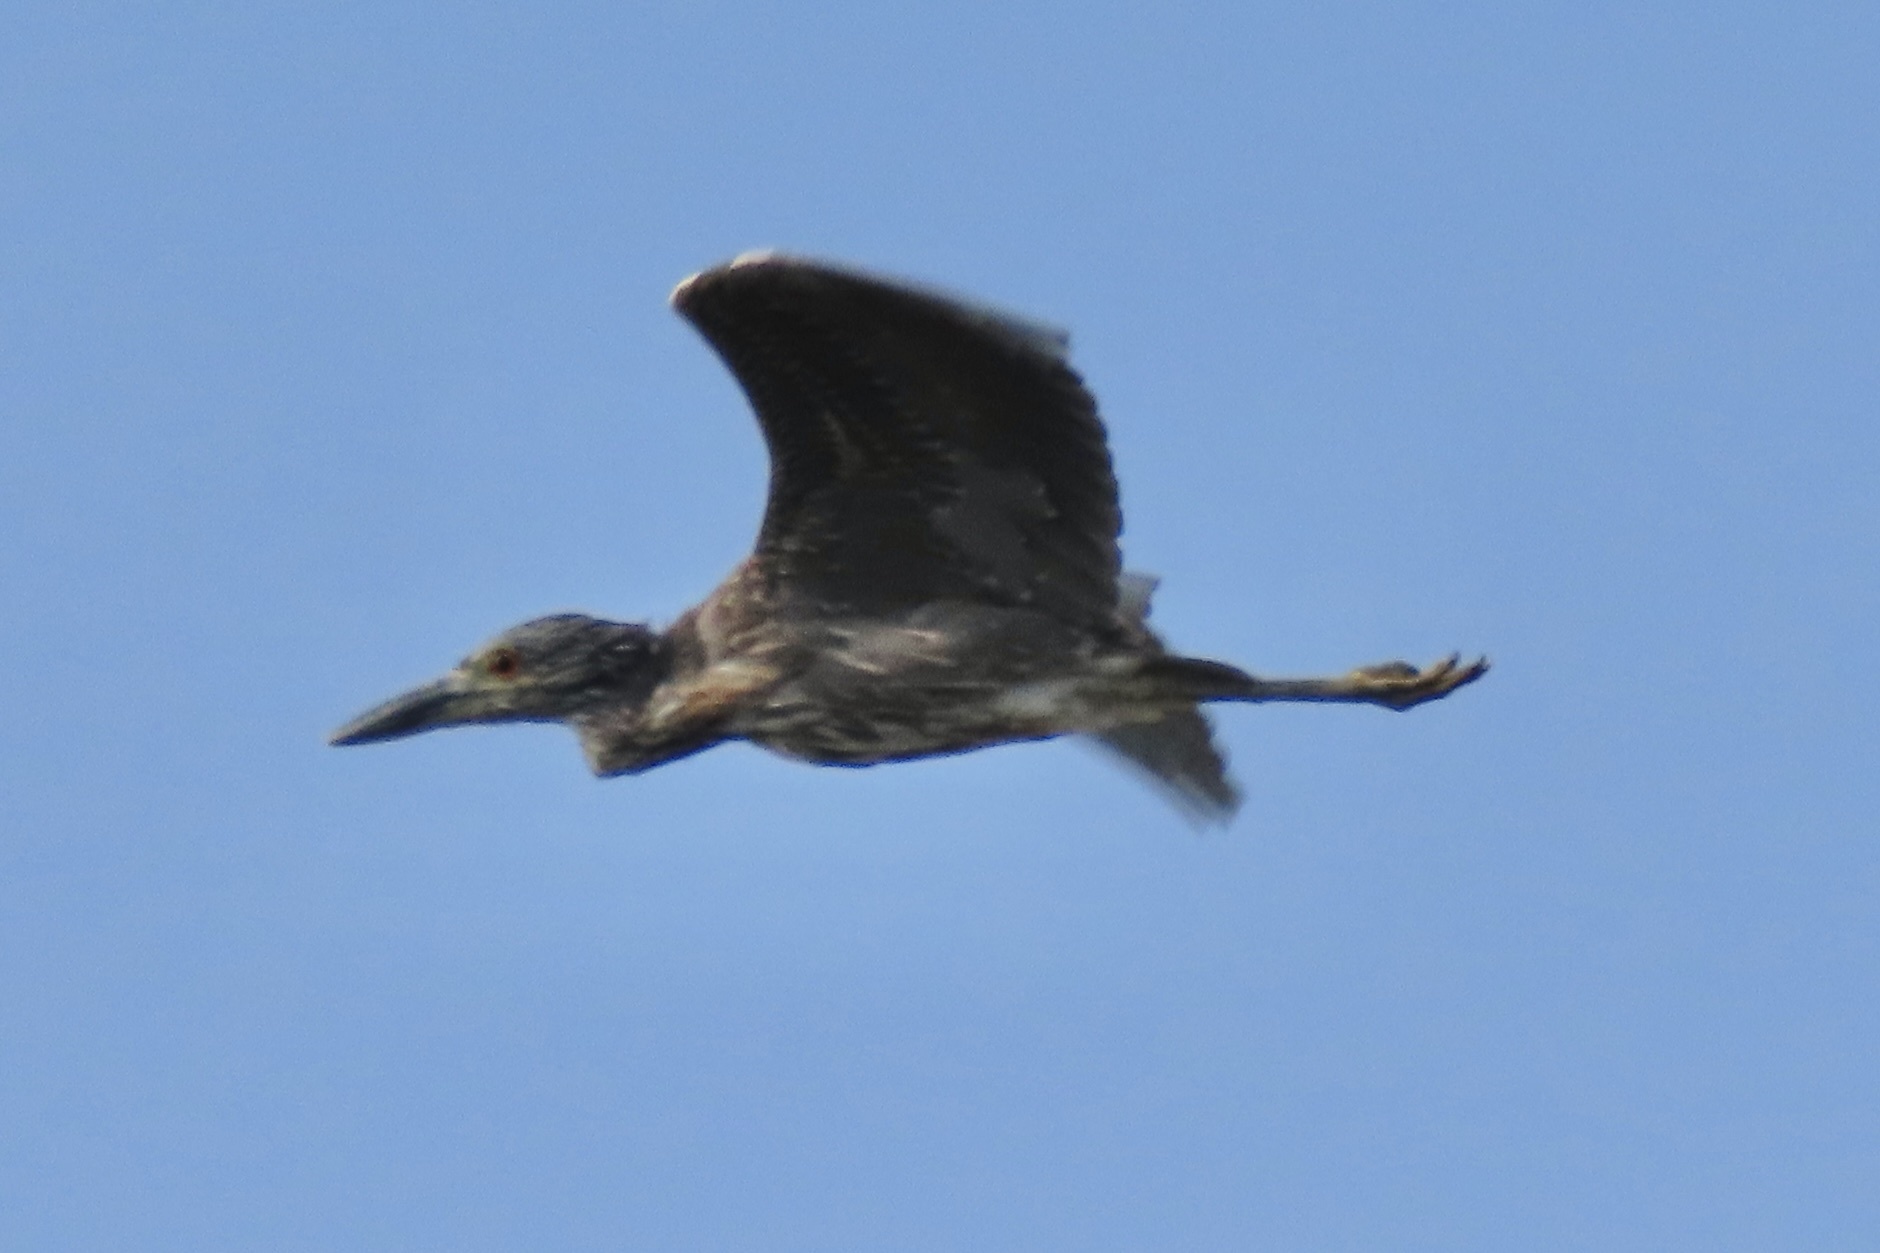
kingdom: Animalia
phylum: Chordata
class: Aves
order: Pelecaniformes
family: Ardeidae
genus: Nyctanassa
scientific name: Nyctanassa violacea
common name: Yellow-crowned night heron
